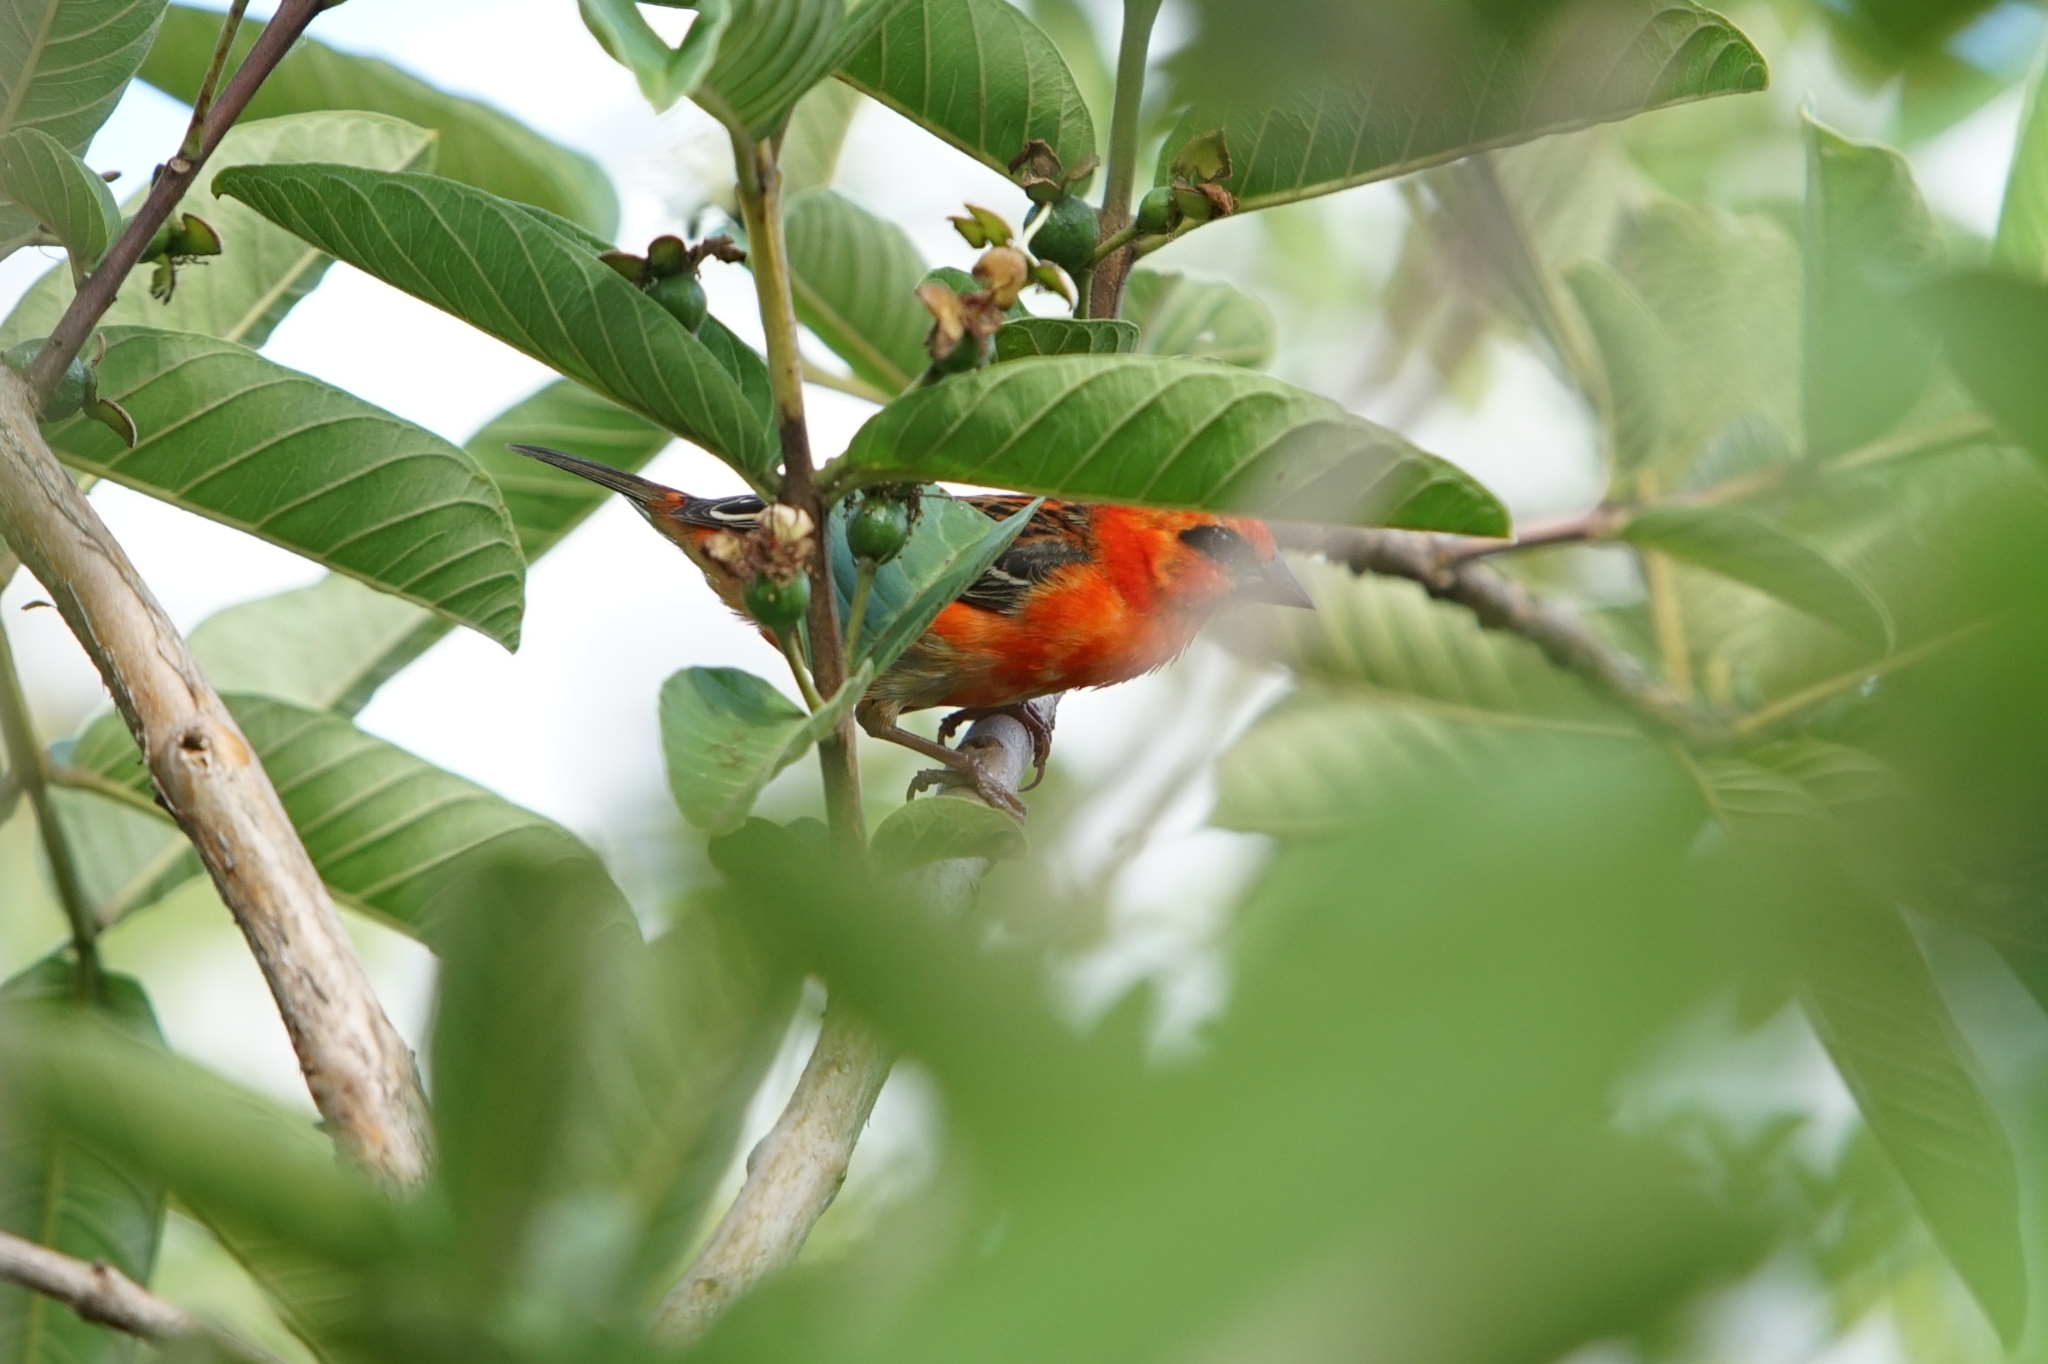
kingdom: Animalia
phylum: Chordata
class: Aves
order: Passeriformes
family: Ploceidae
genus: Foudia
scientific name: Foudia madagascariensis
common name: Red fody
